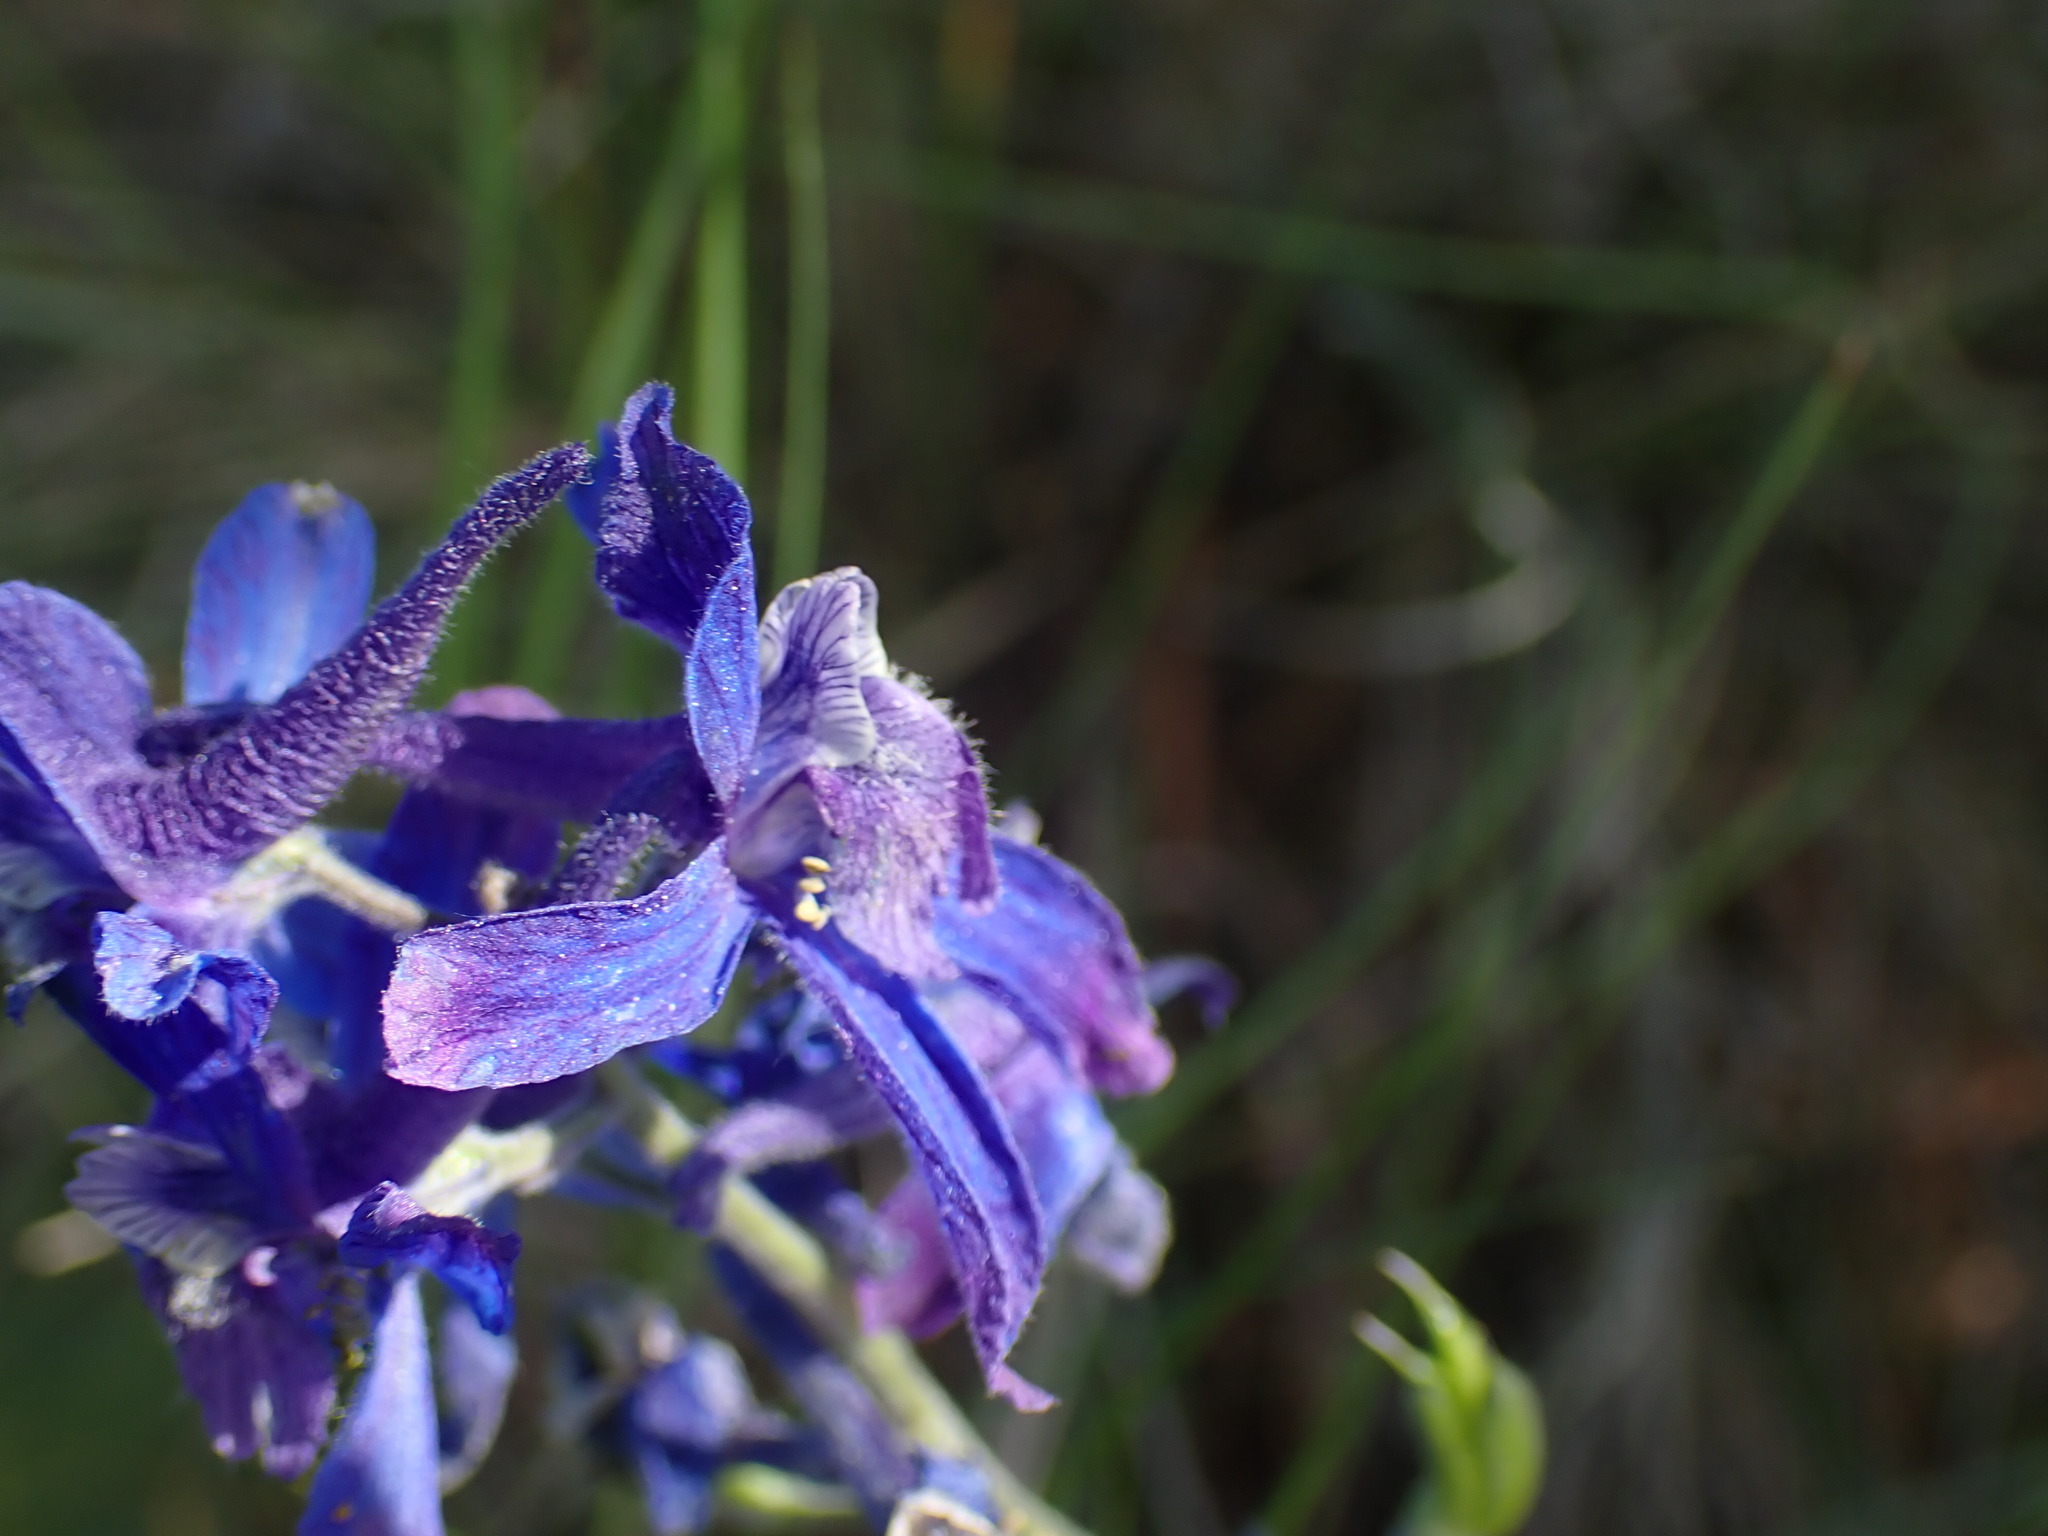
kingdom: Plantae
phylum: Tracheophyta
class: Magnoliopsida
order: Ranunculales
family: Ranunculaceae
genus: Delphinium
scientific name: Delphinium nuttallianum
